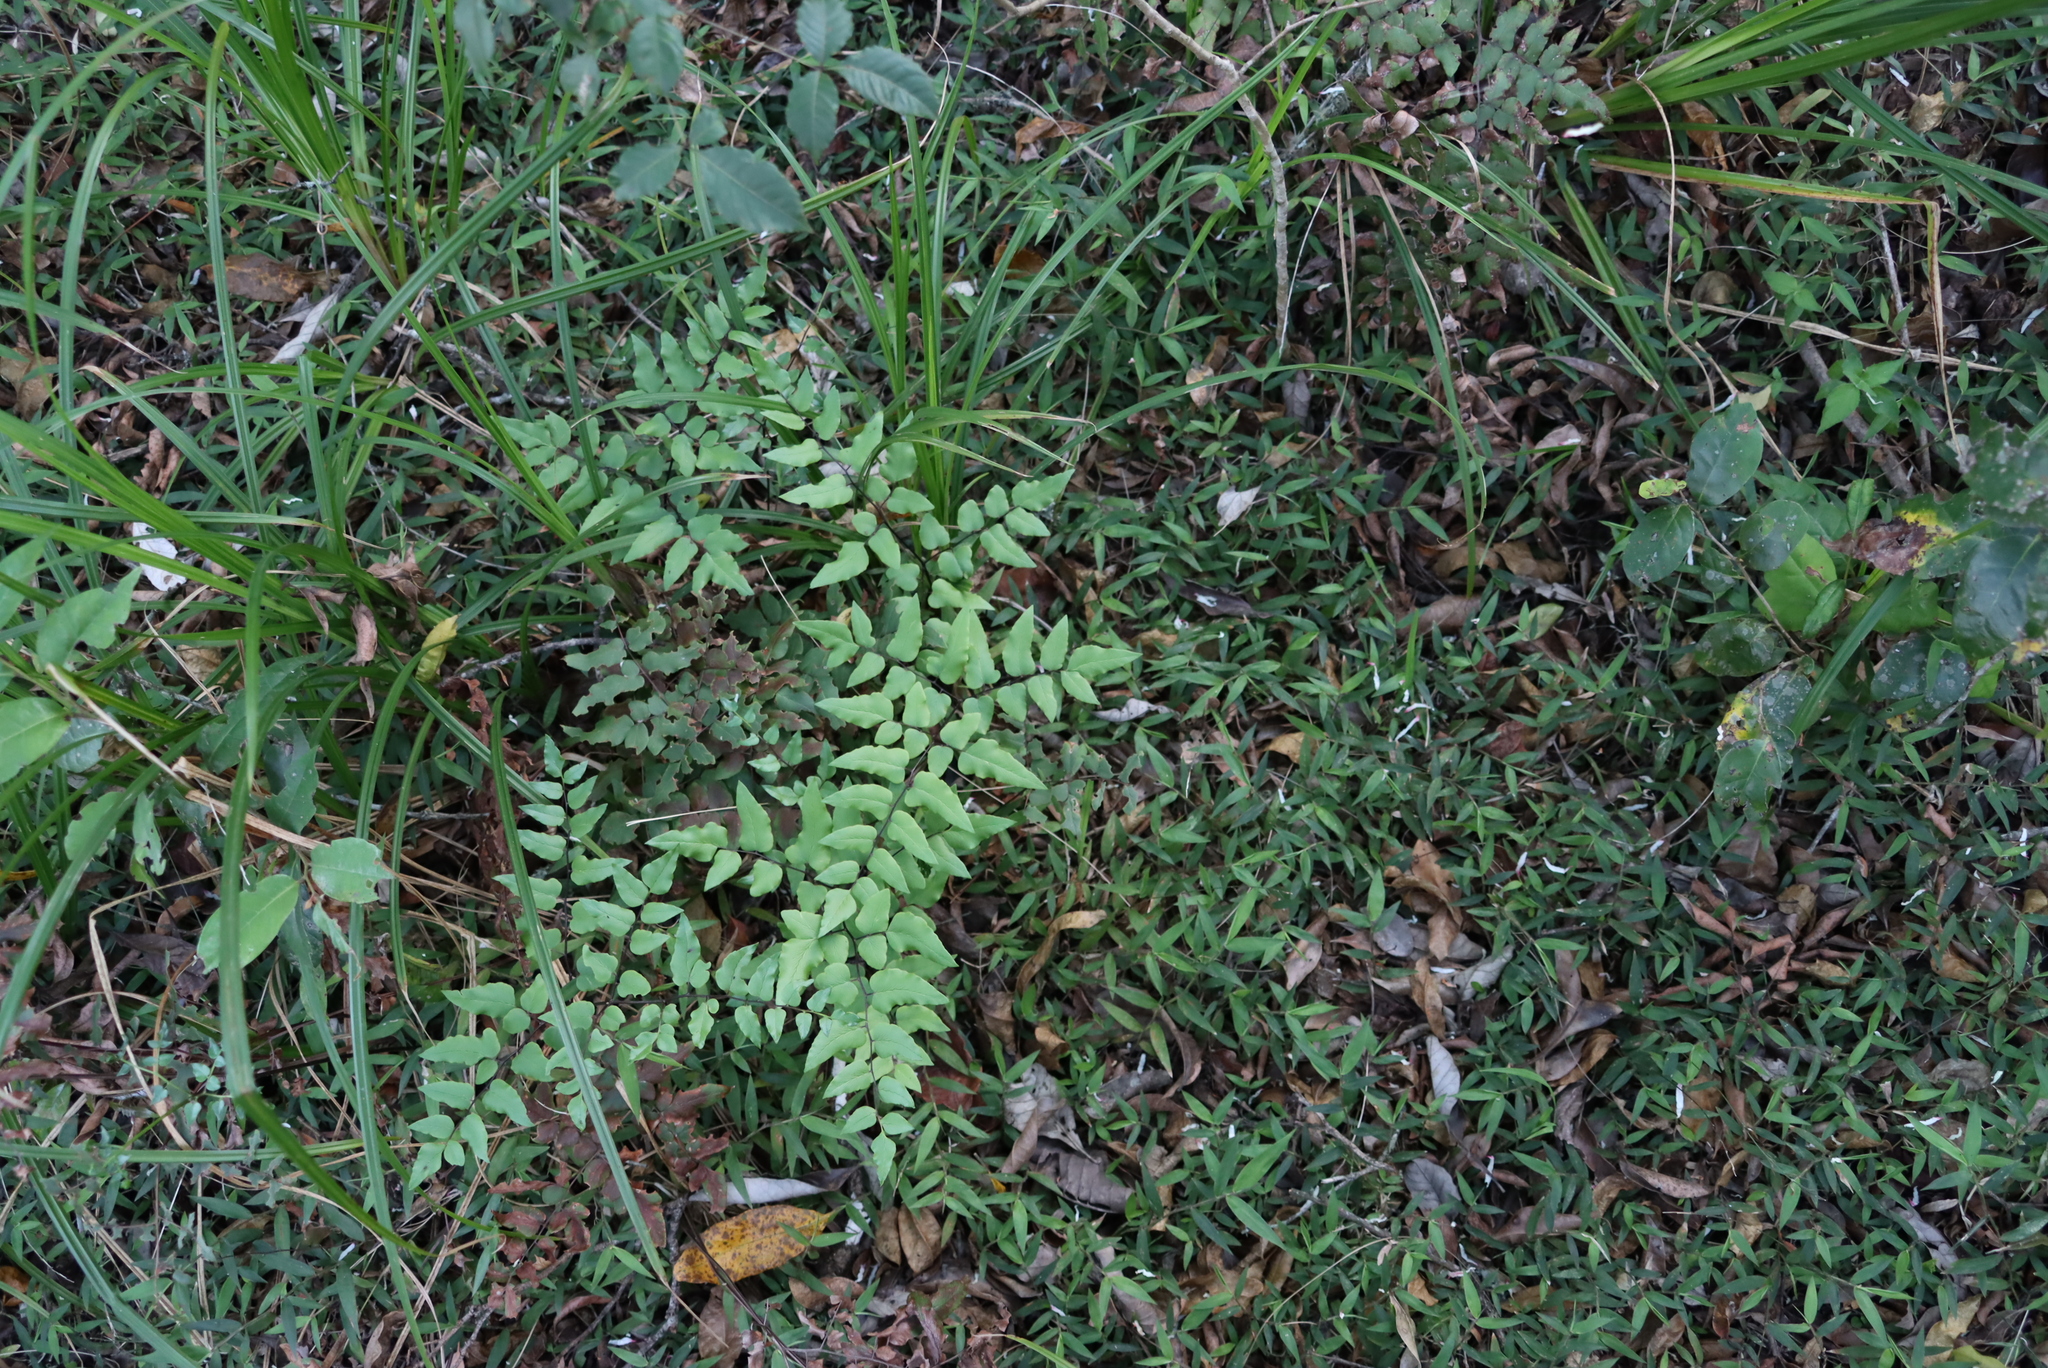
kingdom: Plantae
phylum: Tracheophyta
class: Polypodiopsida
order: Polypodiales
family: Pteridaceae
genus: Cheilanthes
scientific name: Cheilanthes viridis
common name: Green cliffbrake
